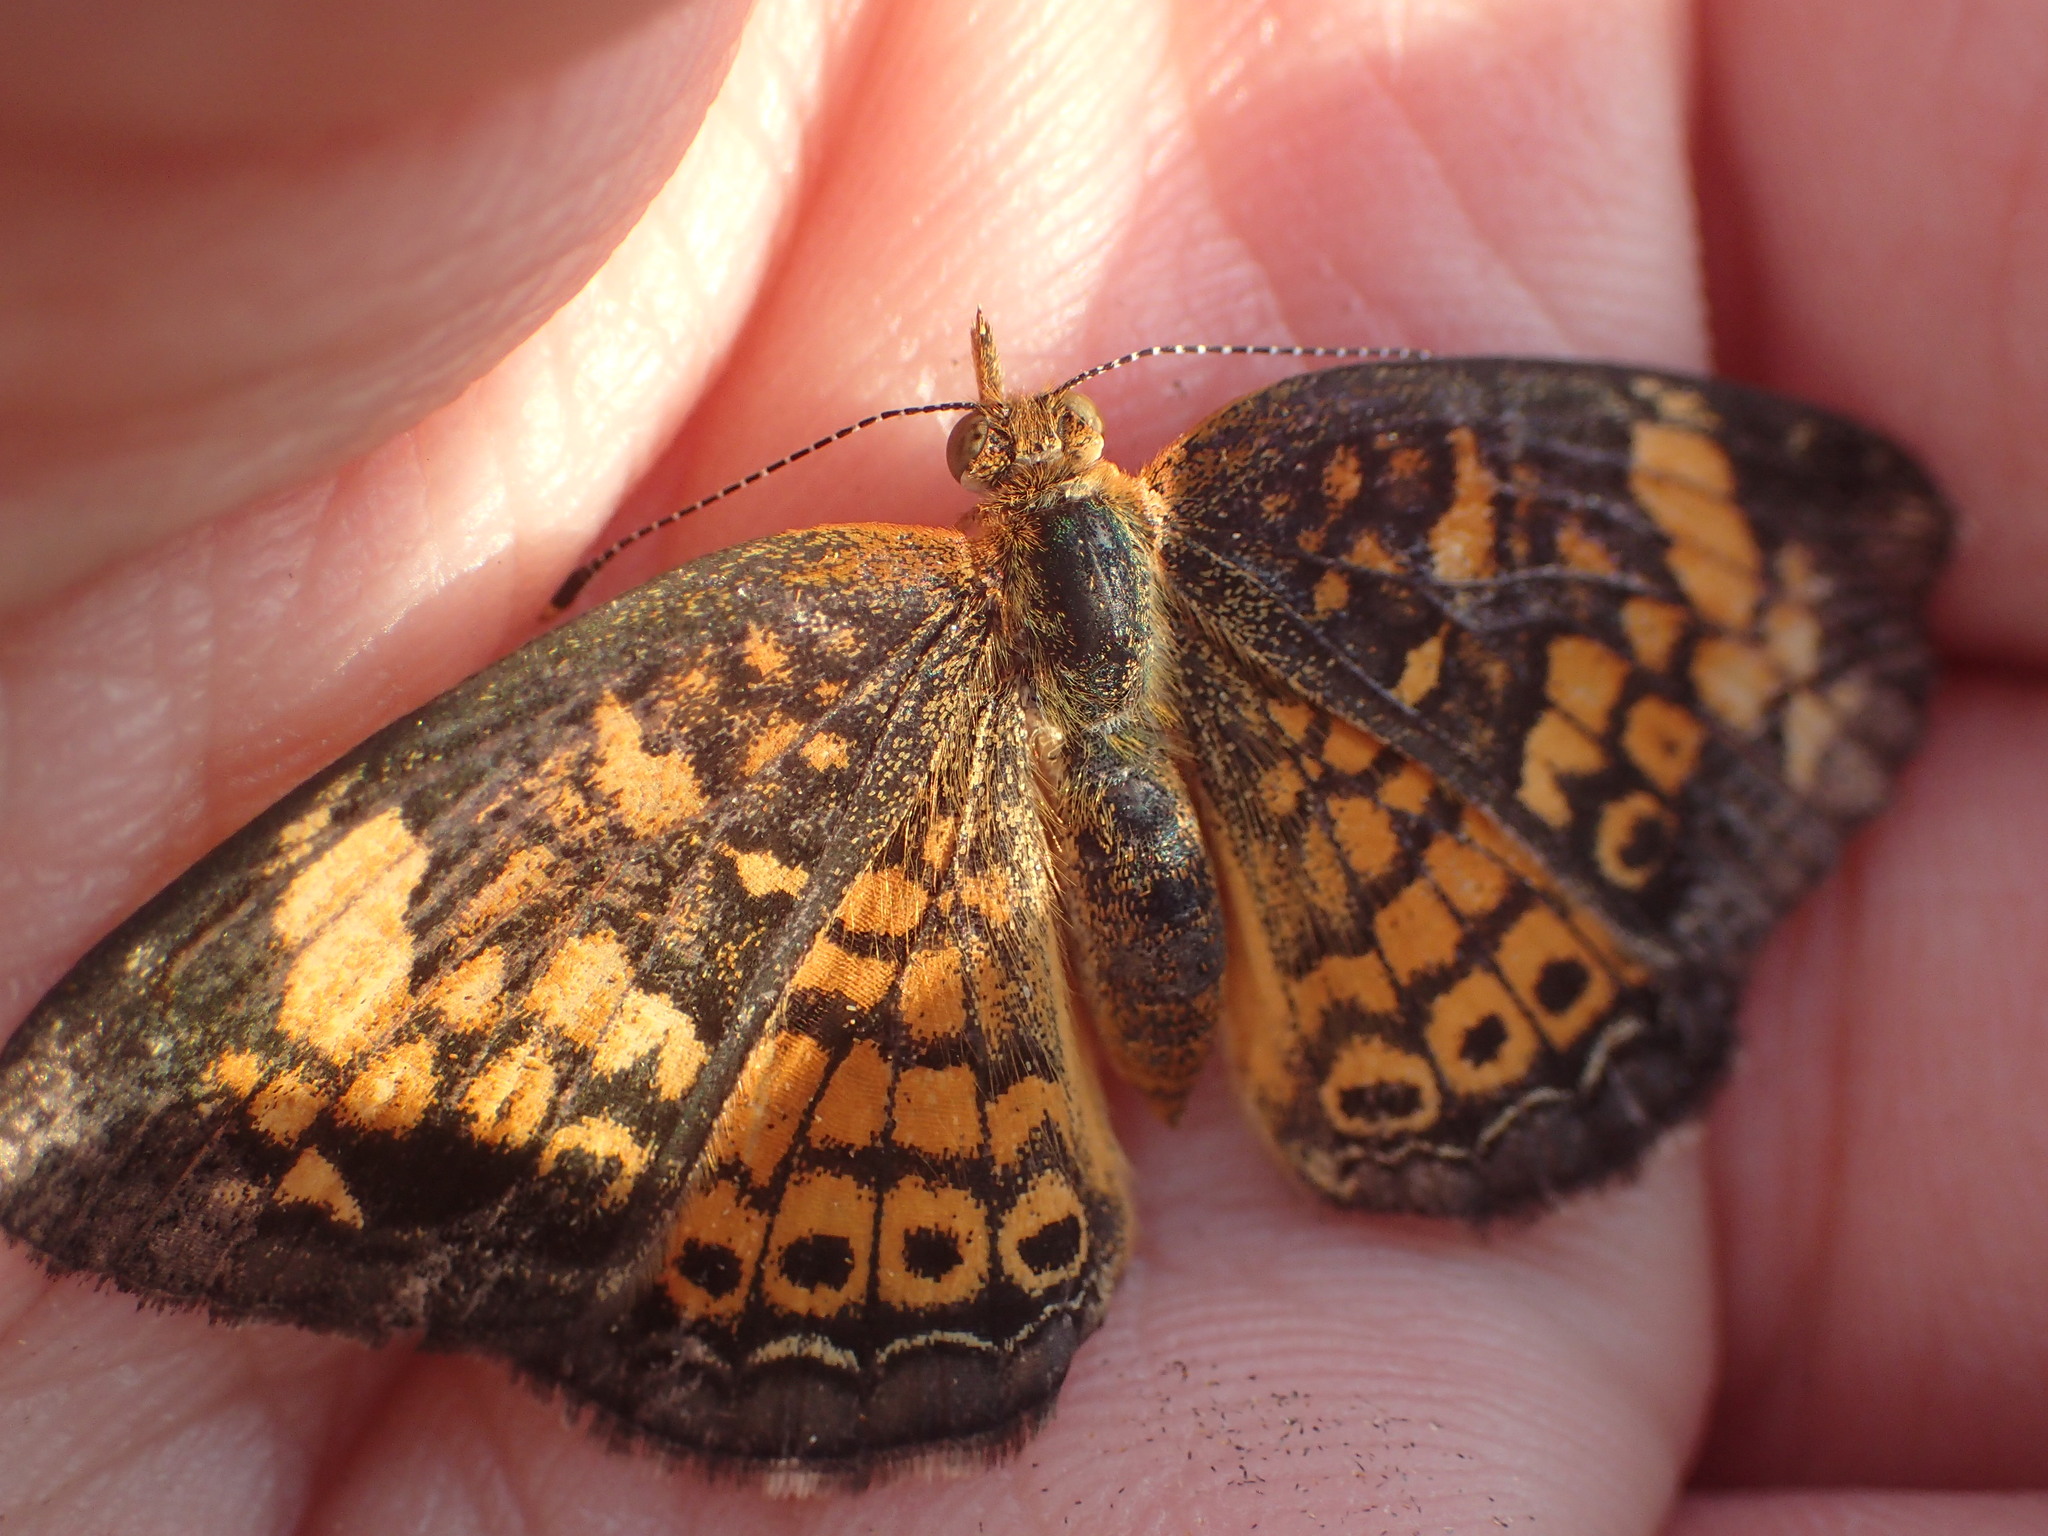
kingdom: Animalia
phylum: Arthropoda
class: Insecta
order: Lepidoptera
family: Nymphalidae
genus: Phyciodes
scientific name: Phyciodes tharos
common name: Pearl crescent
